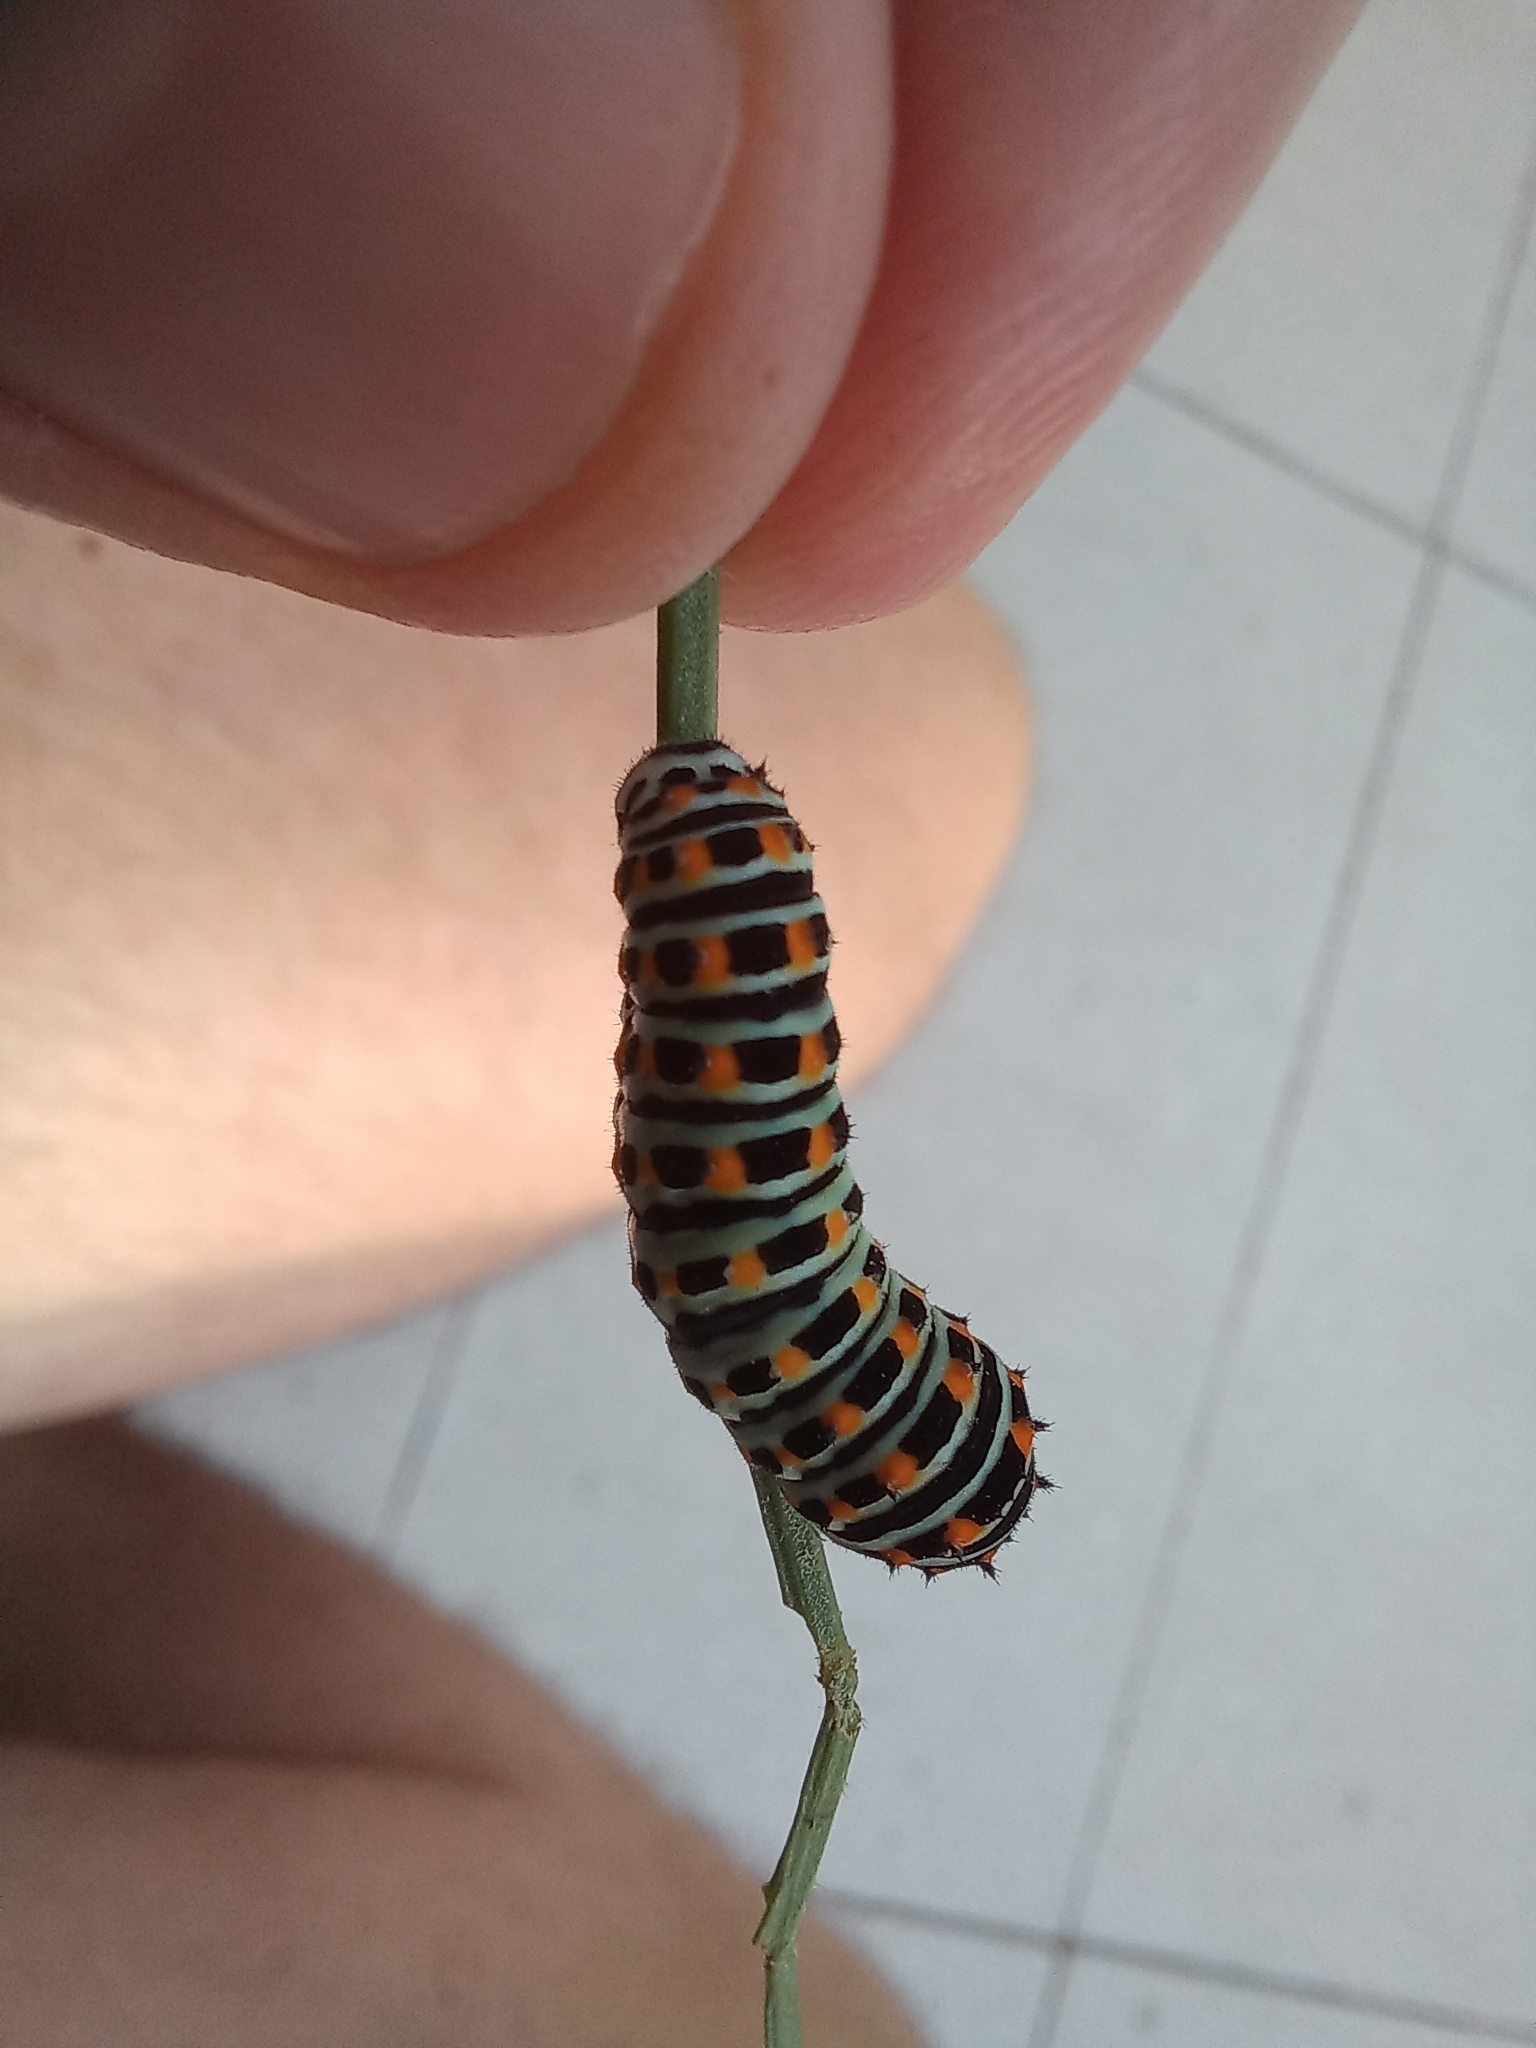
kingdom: Animalia
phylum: Arthropoda
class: Insecta
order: Lepidoptera
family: Papilionidae
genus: Papilio
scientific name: Papilio machaon
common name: Swallowtail
